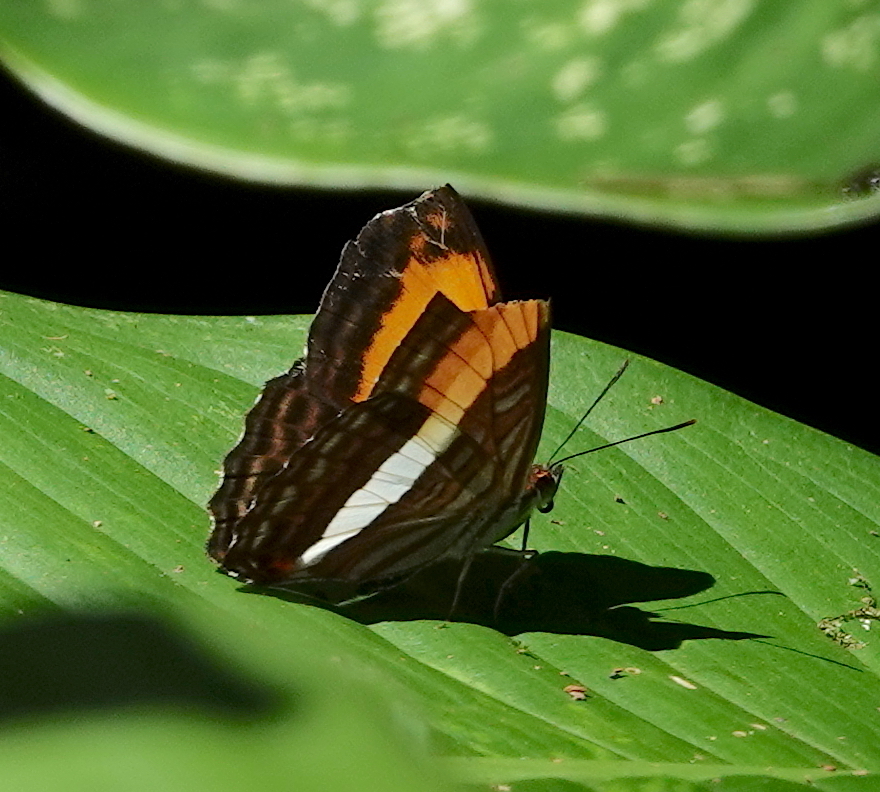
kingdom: Animalia
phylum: Arthropoda
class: Insecta
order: Lepidoptera
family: Nymphalidae
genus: Limenitis
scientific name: Limenitis cocala
